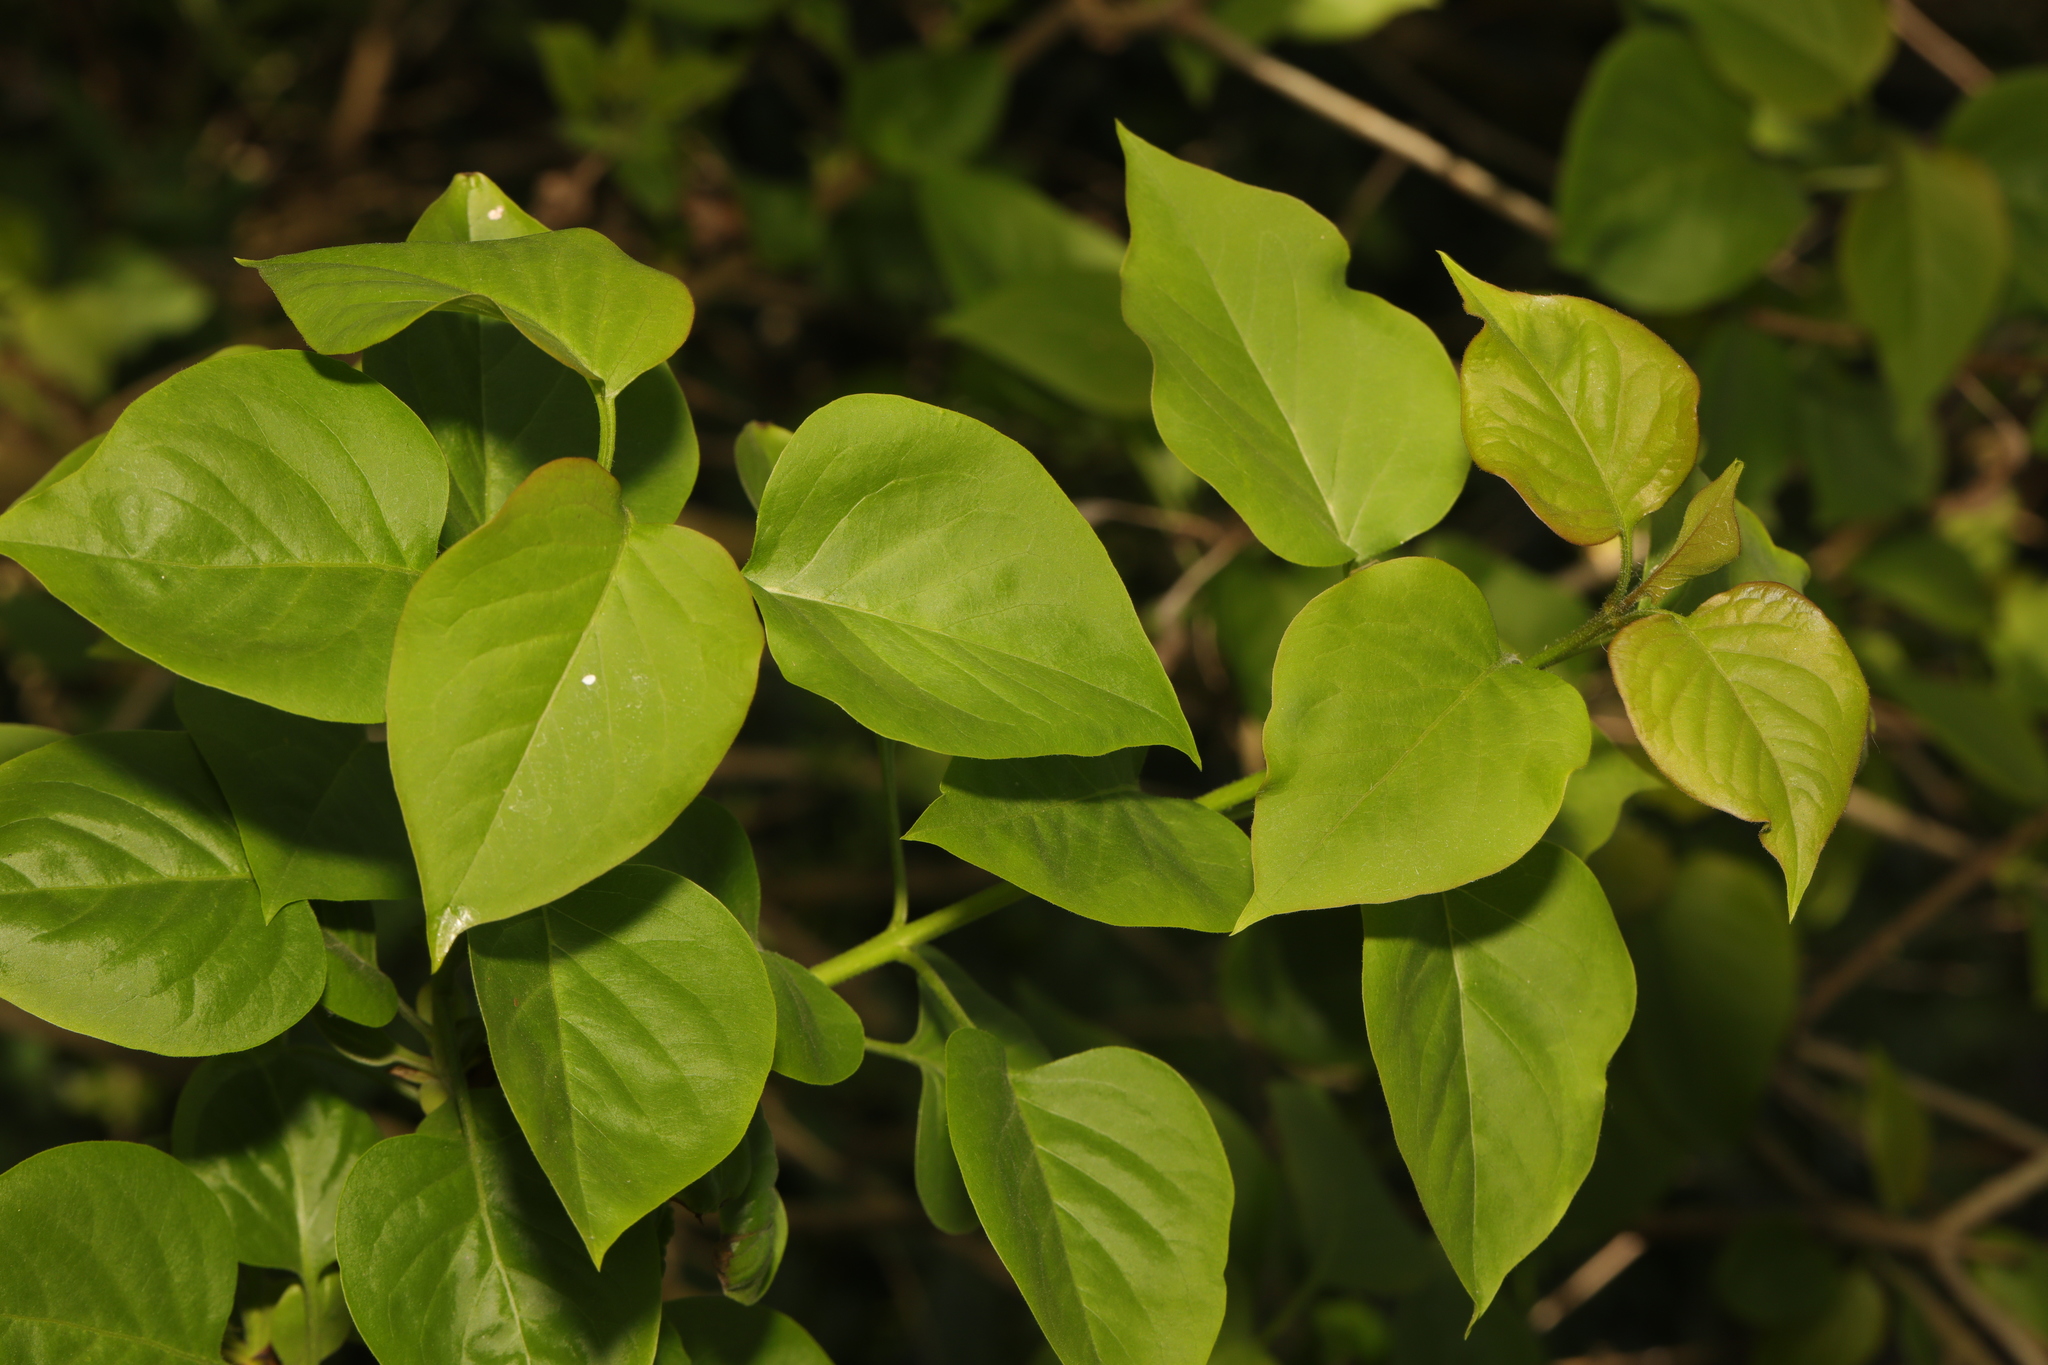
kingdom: Plantae
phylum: Tracheophyta
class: Magnoliopsida
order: Lamiales
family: Oleaceae
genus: Syringa
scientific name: Syringa vulgaris
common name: Common lilac
